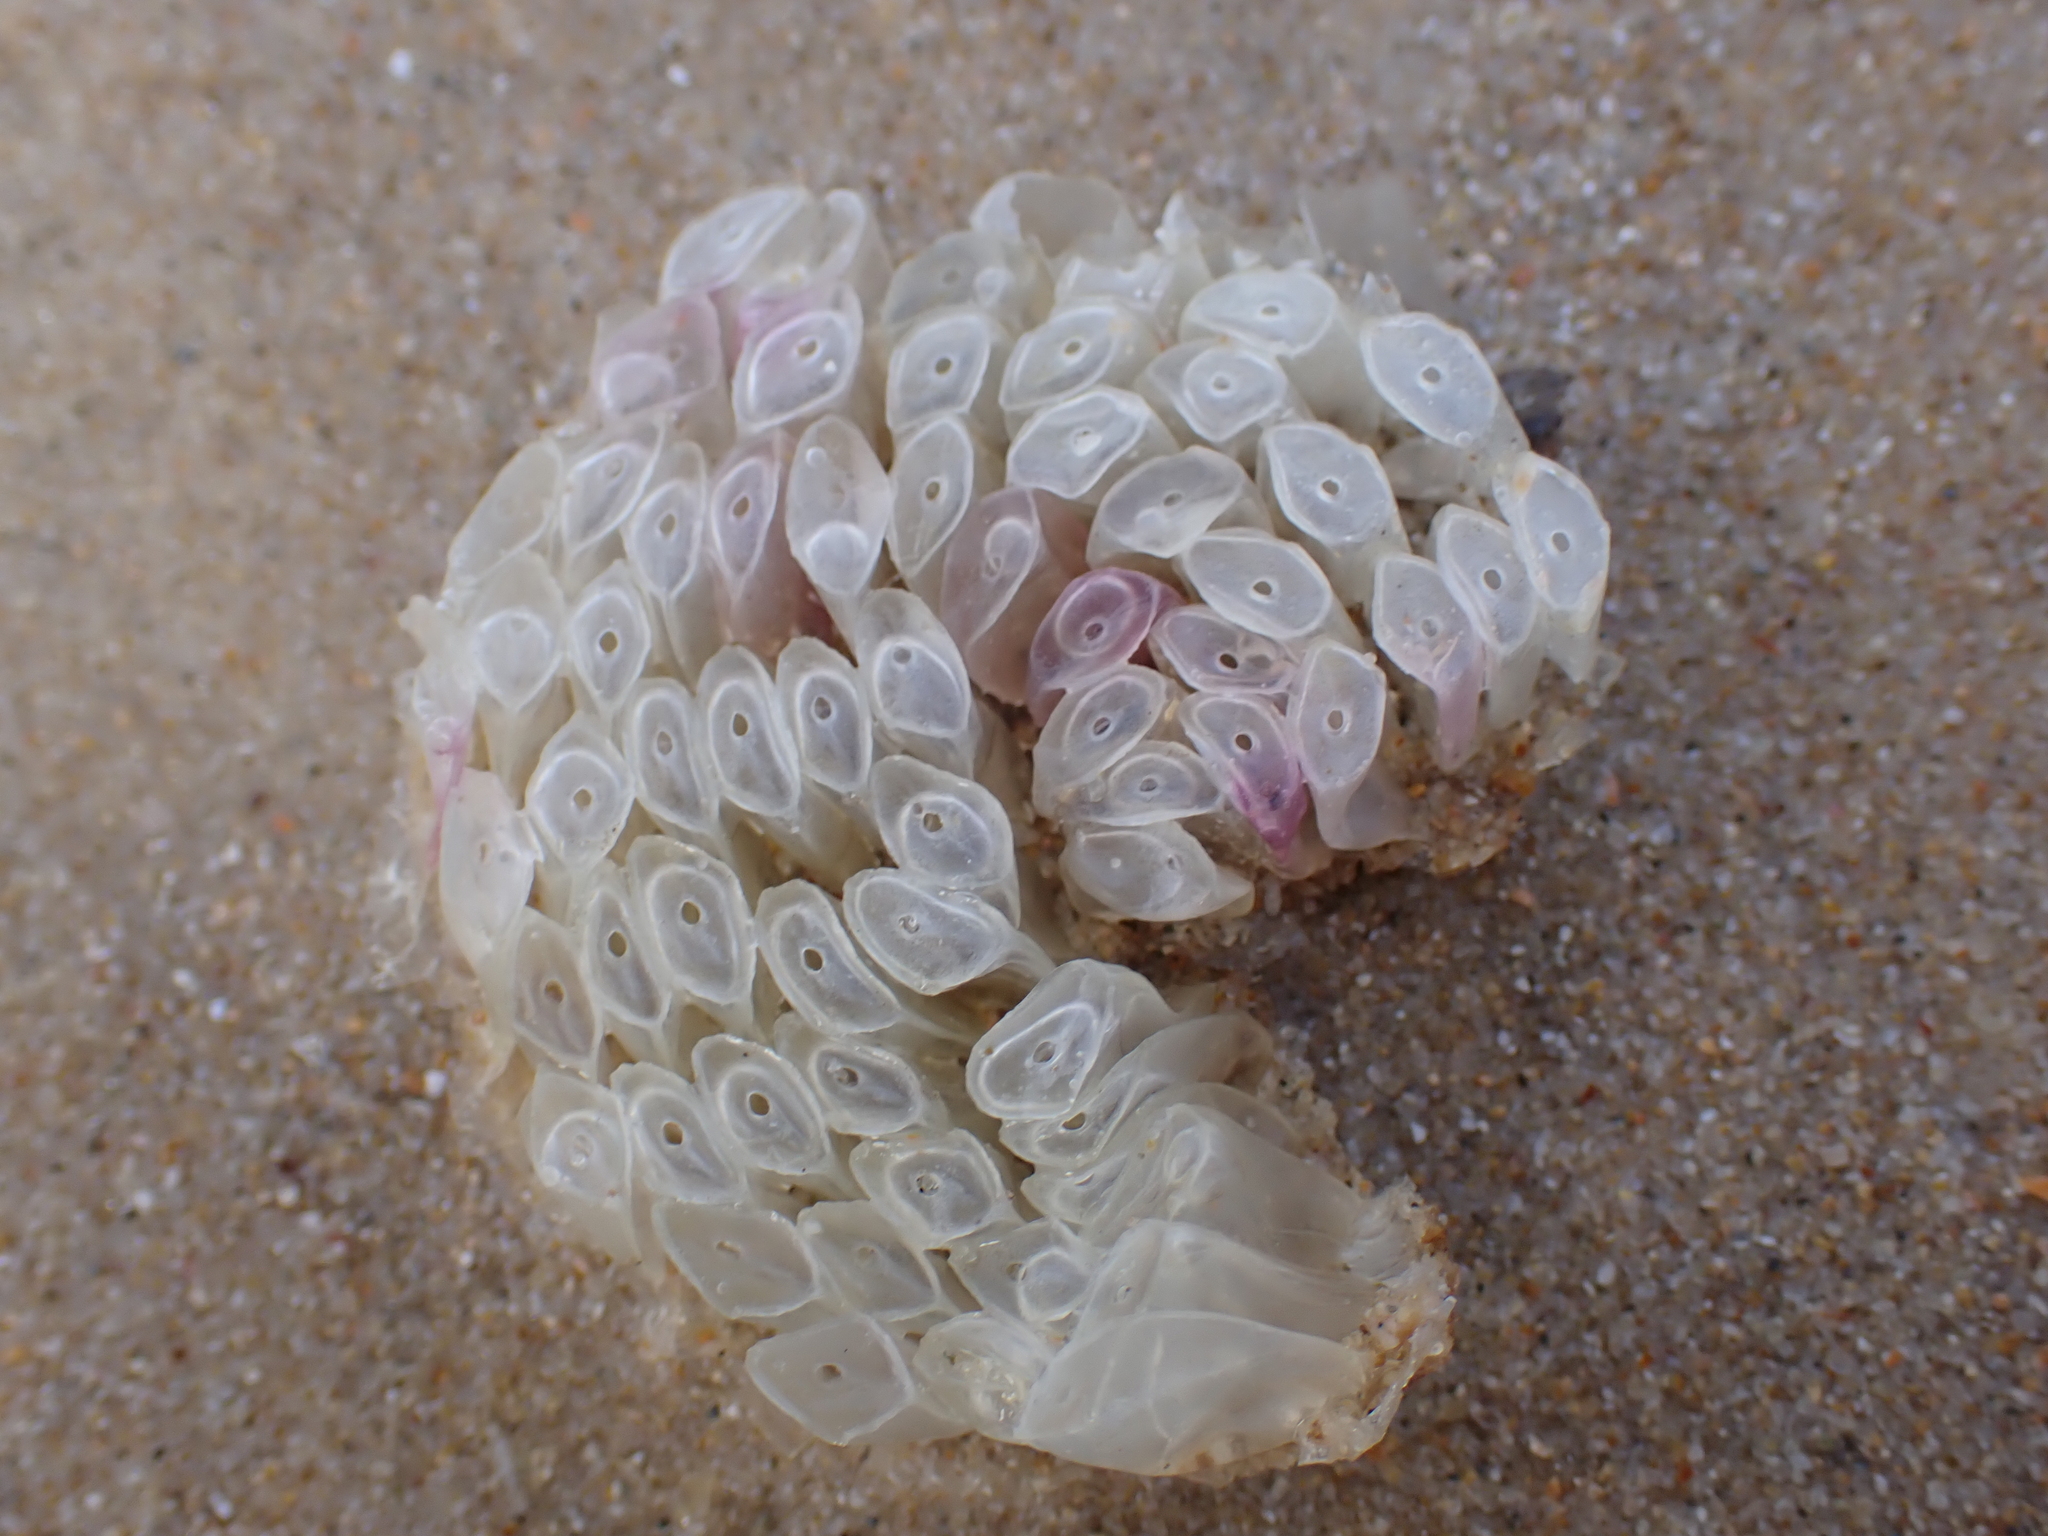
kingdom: Animalia
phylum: Mollusca
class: Gastropoda
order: Neogastropoda
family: Muricidae
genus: Dicathais
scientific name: Dicathais orbita
